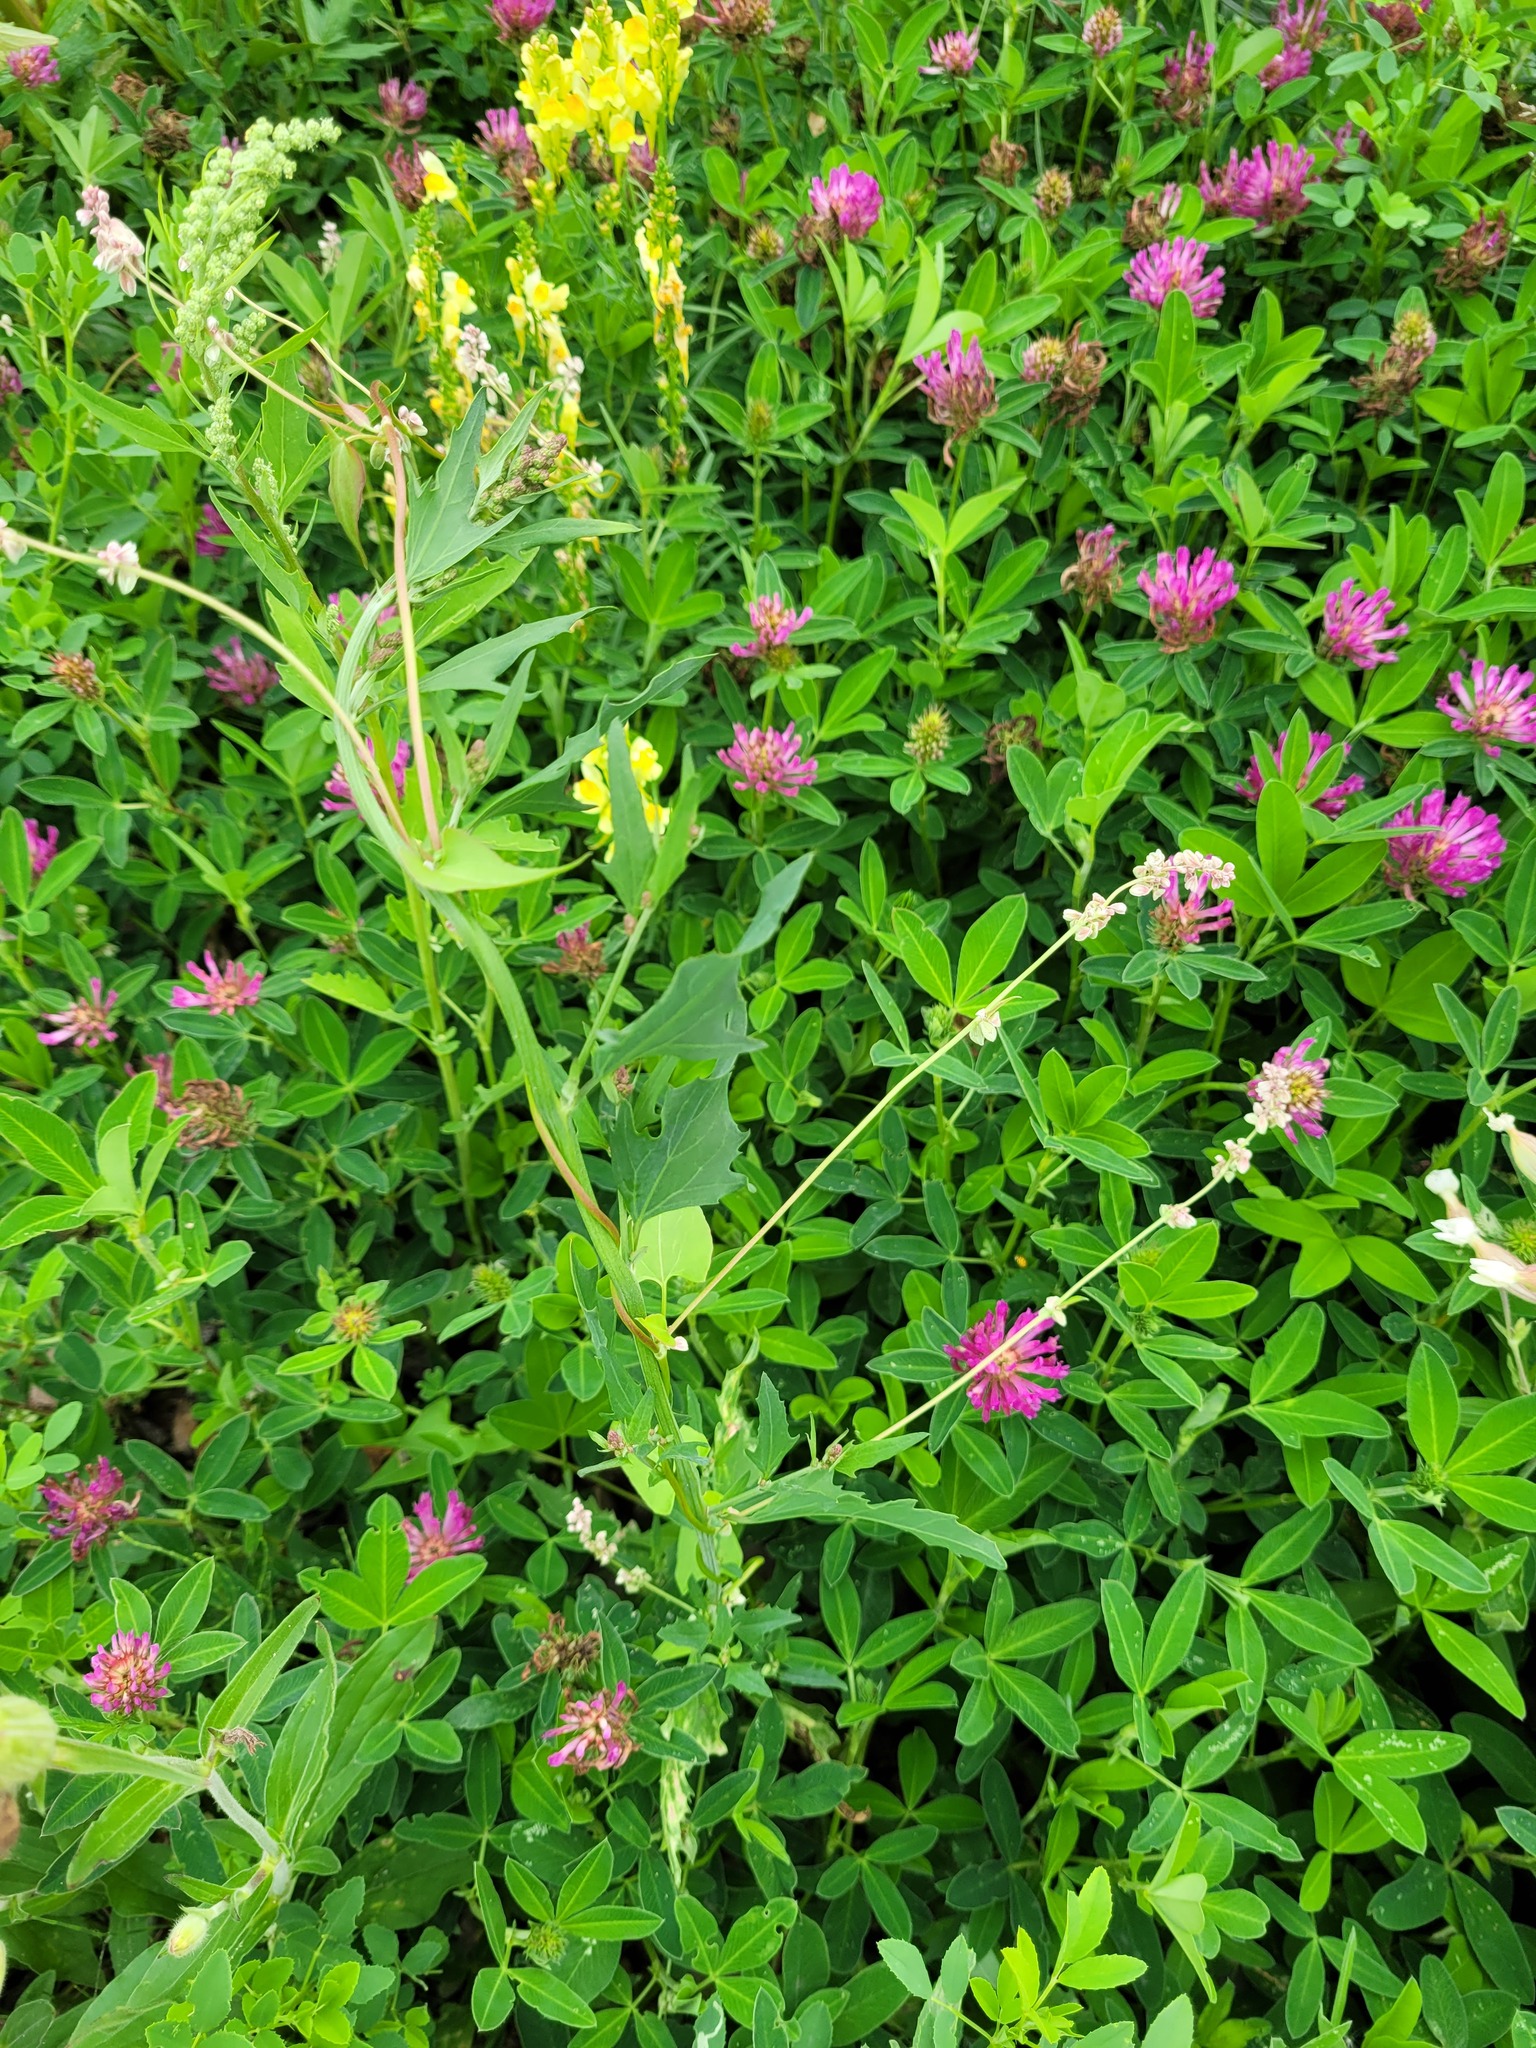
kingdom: Plantae
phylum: Tracheophyta
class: Magnoliopsida
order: Caryophyllales
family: Polygonaceae
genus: Fallopia
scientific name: Fallopia convolvulus
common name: Black bindweed
